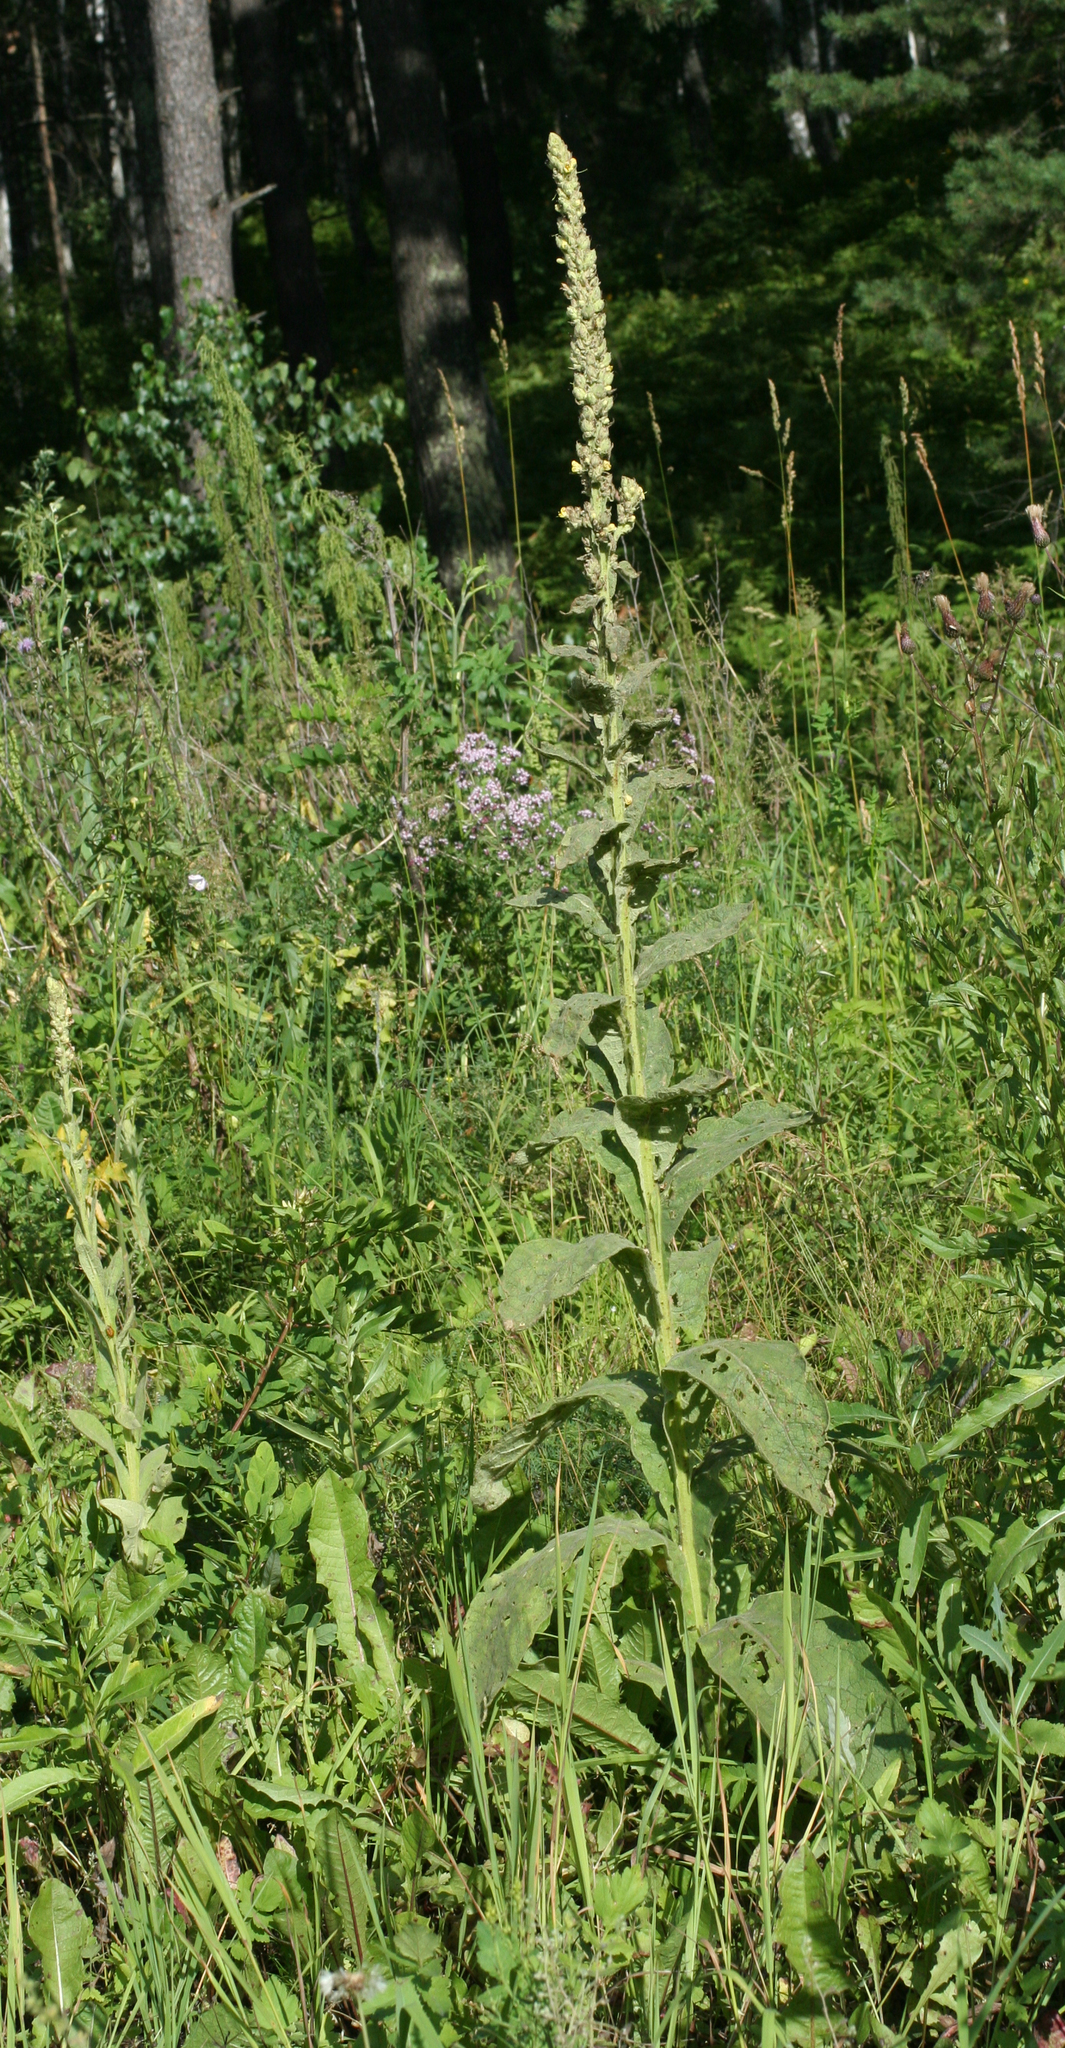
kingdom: Plantae
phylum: Tracheophyta
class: Magnoliopsida
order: Lamiales
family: Scrophulariaceae
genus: Verbascum
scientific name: Verbascum thapsus
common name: Common mullein
